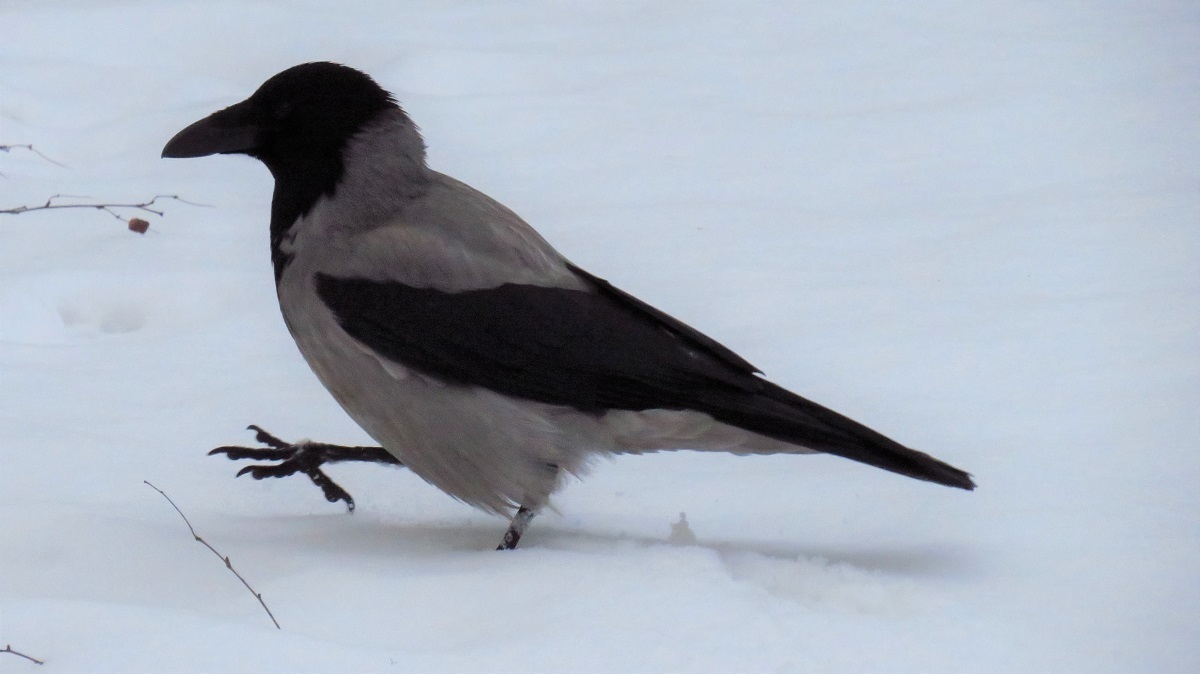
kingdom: Animalia
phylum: Chordata
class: Aves
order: Passeriformes
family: Corvidae
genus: Corvus
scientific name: Corvus cornix
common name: Hooded crow
